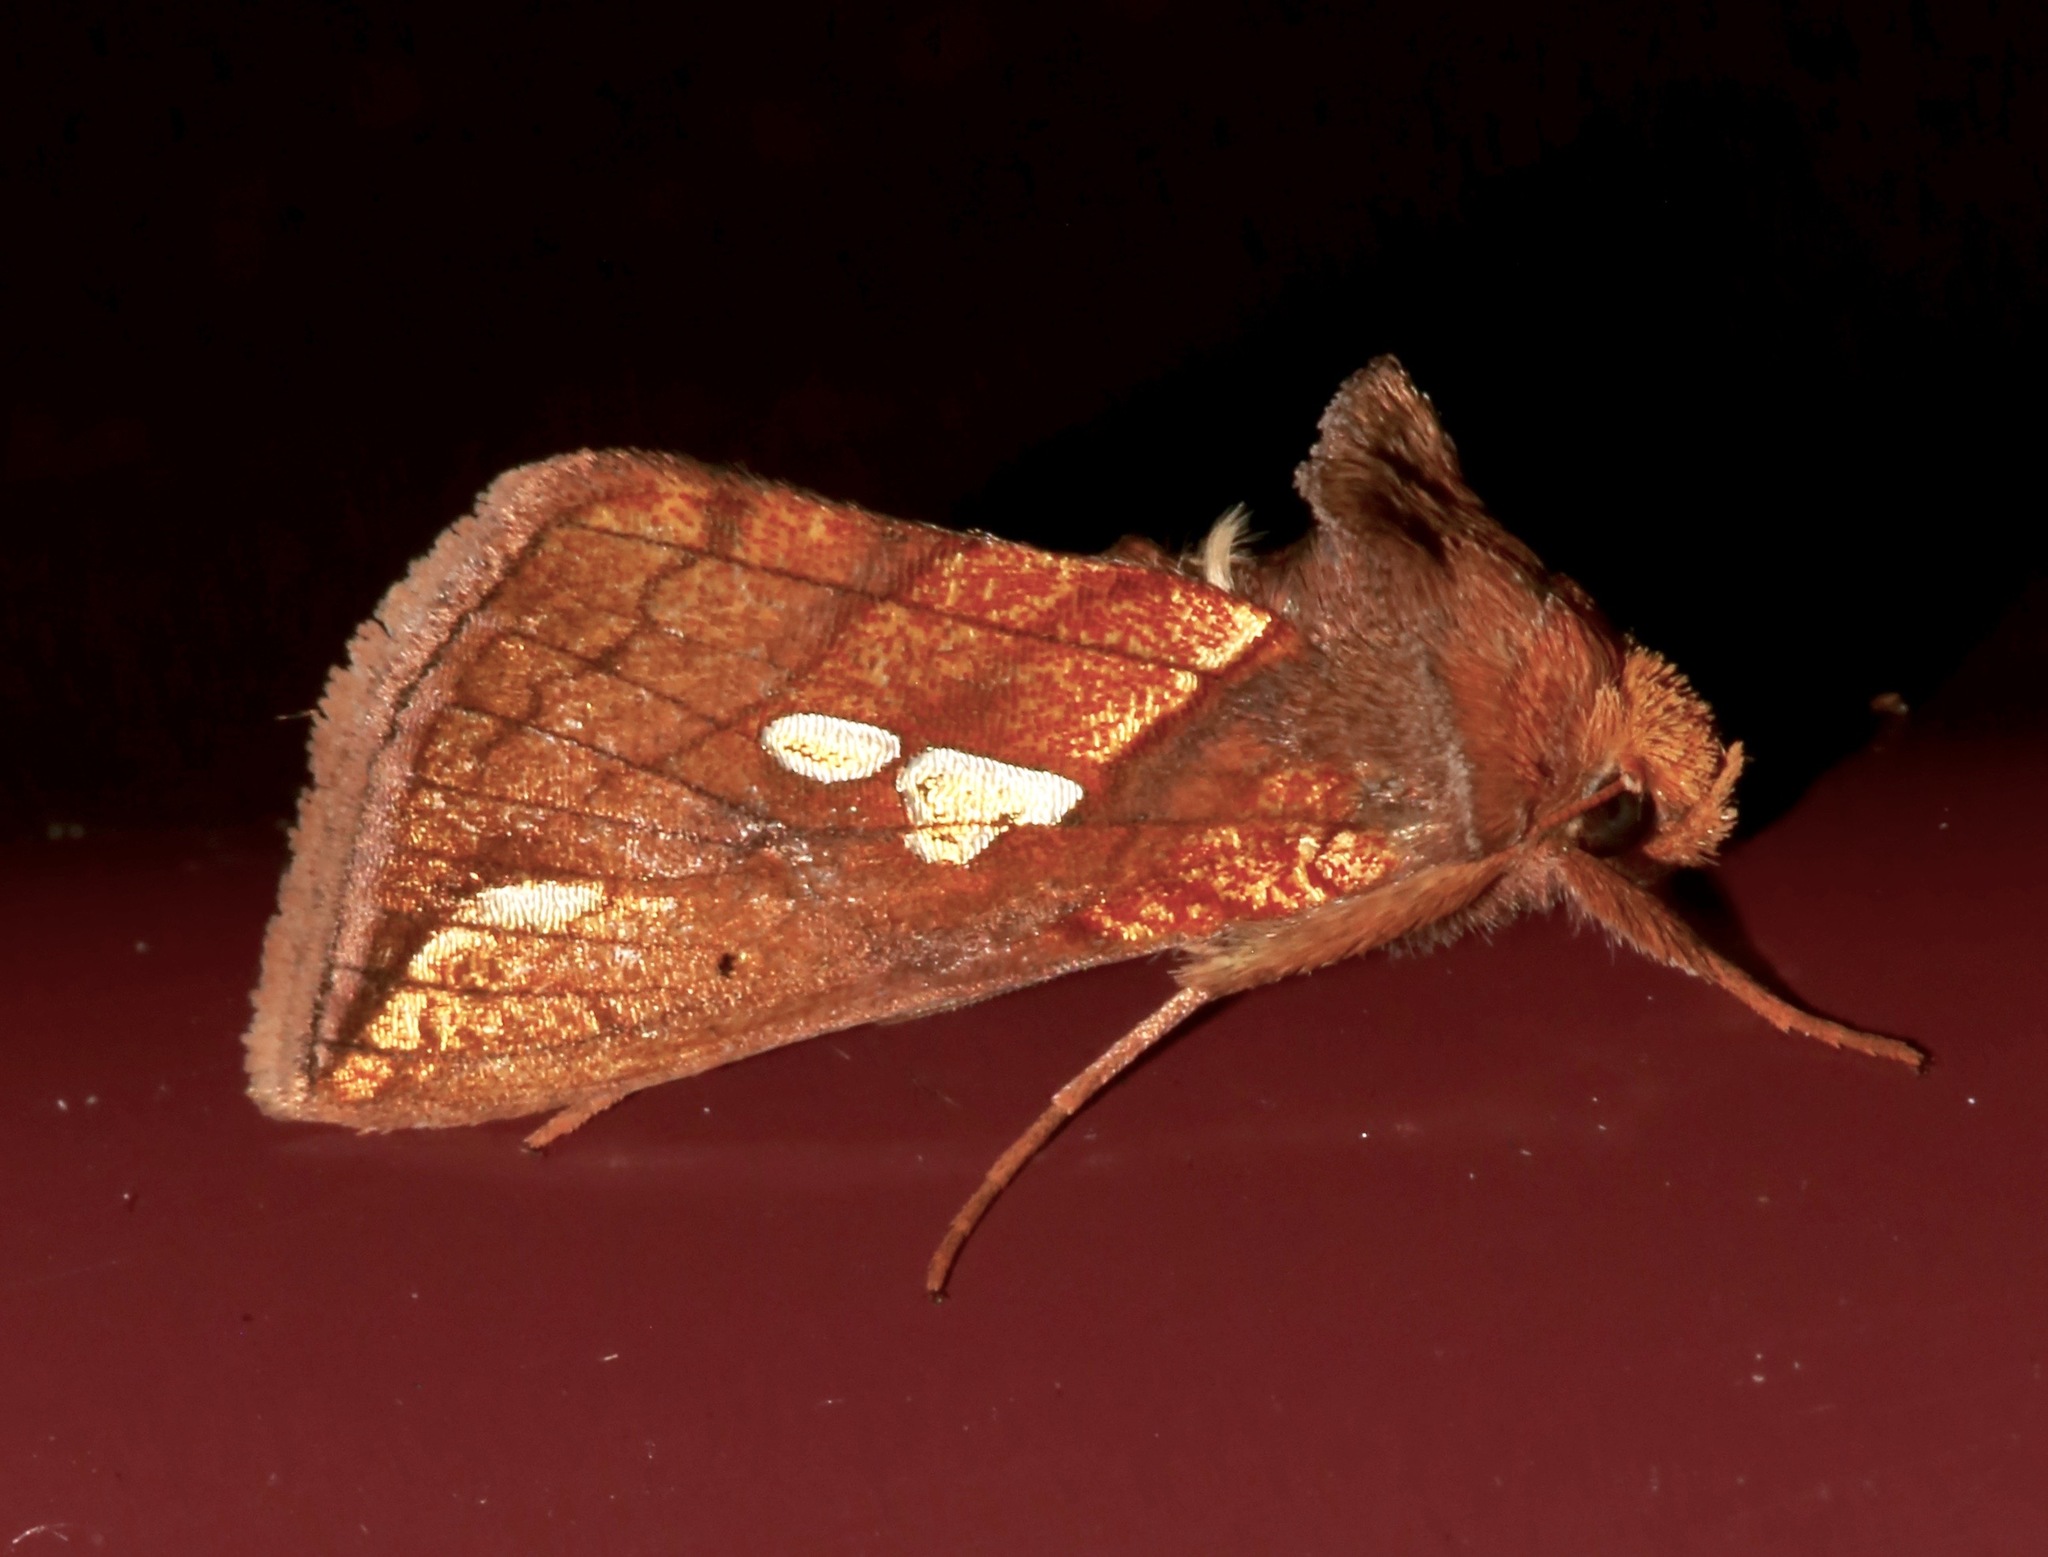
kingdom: Animalia
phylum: Arthropoda
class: Insecta
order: Lepidoptera
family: Noctuidae
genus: Plusia
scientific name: Plusia putnami
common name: Lempke's gold spot
